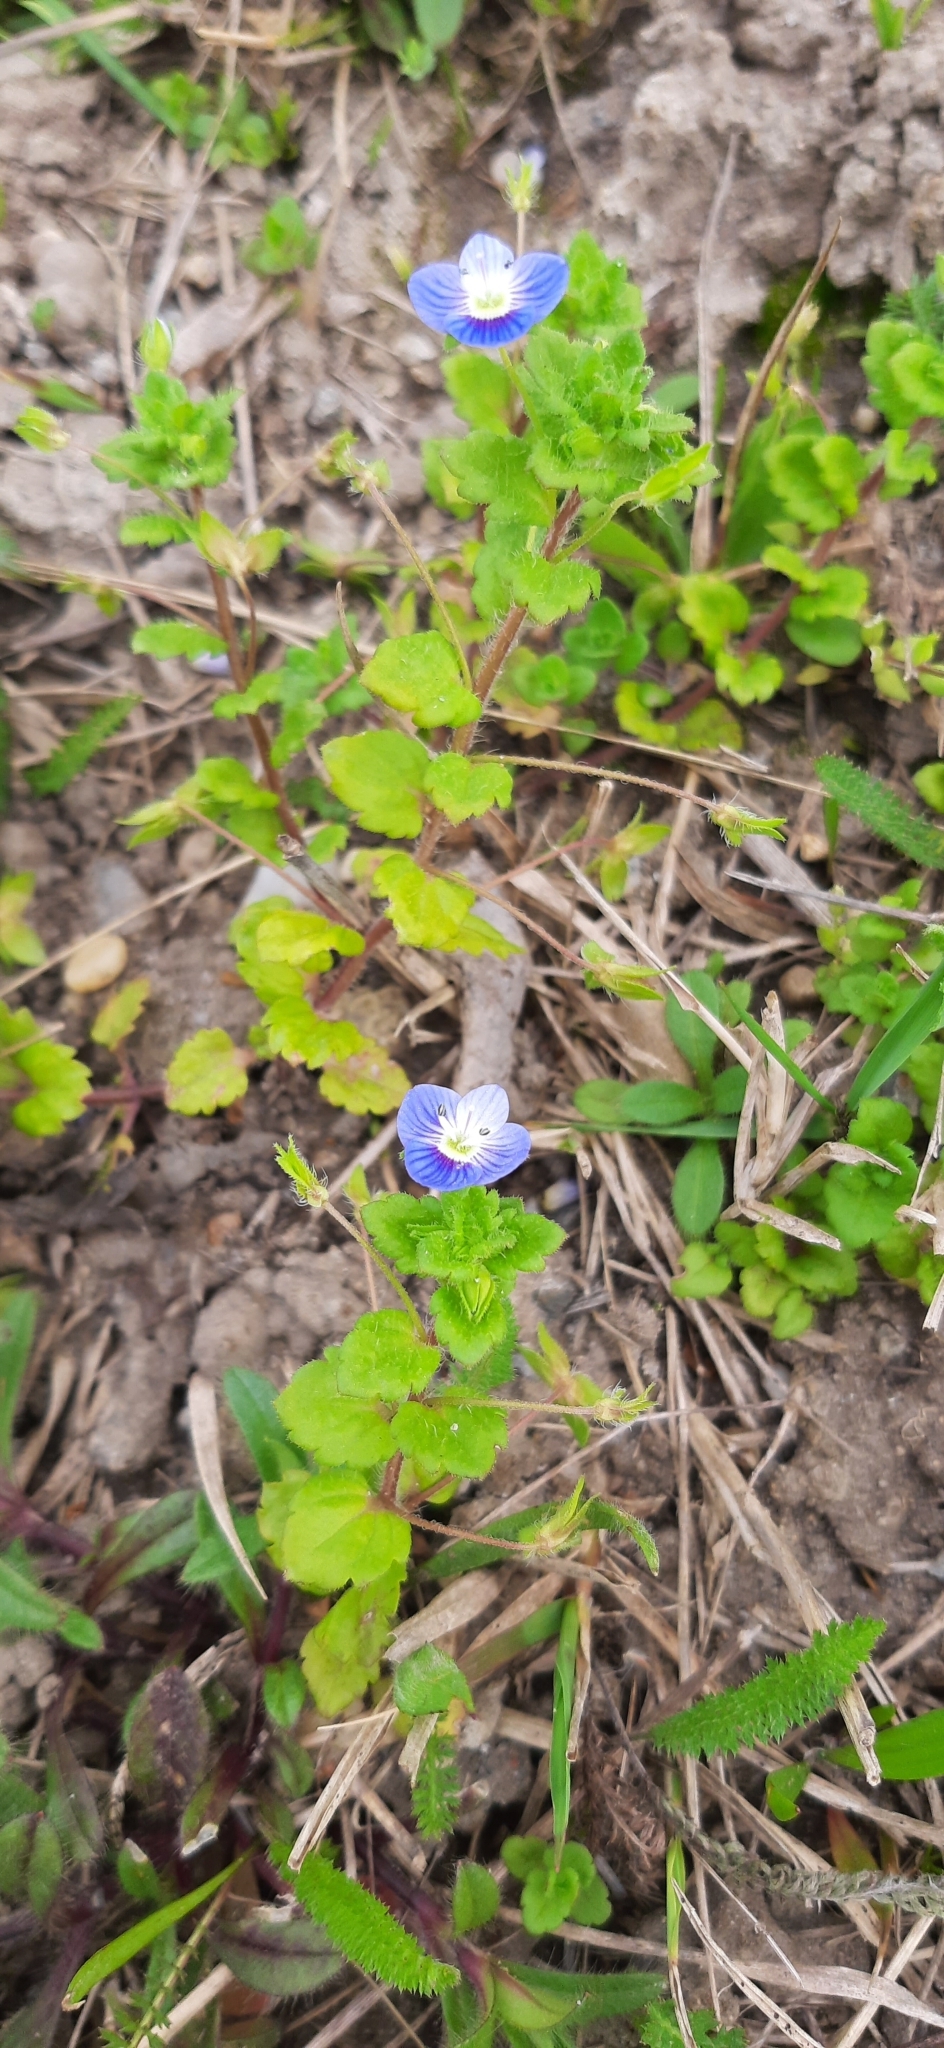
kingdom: Plantae
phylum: Tracheophyta
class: Magnoliopsida
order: Lamiales
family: Plantaginaceae
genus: Veronica
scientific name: Veronica persica
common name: Common field-speedwell
